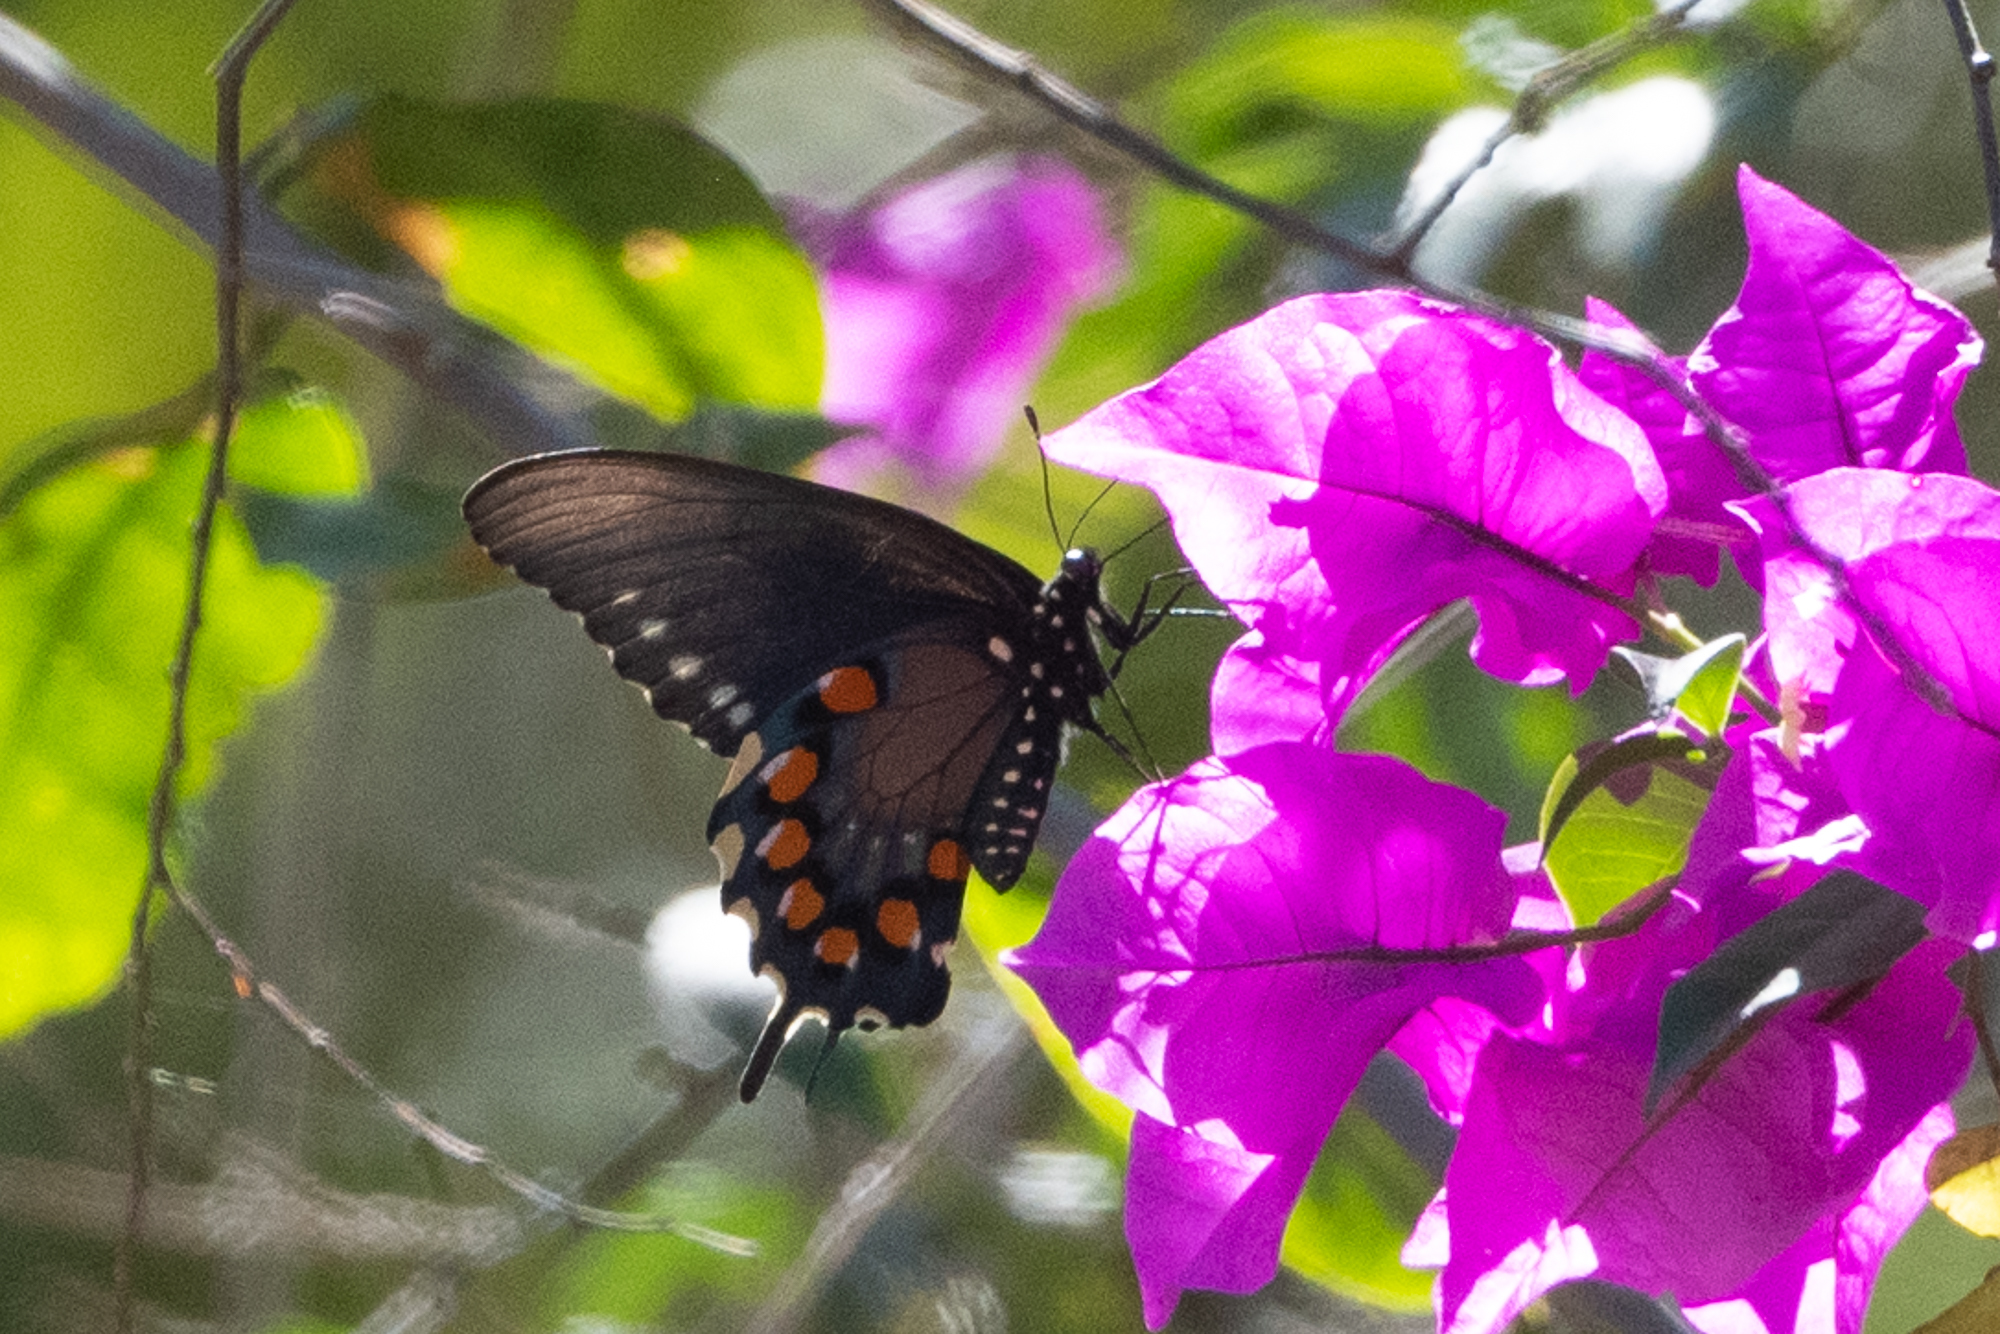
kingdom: Animalia
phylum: Arthropoda
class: Insecta
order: Lepidoptera
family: Papilionidae
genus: Battus
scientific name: Battus philenor
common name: Pipevine swallowtail
